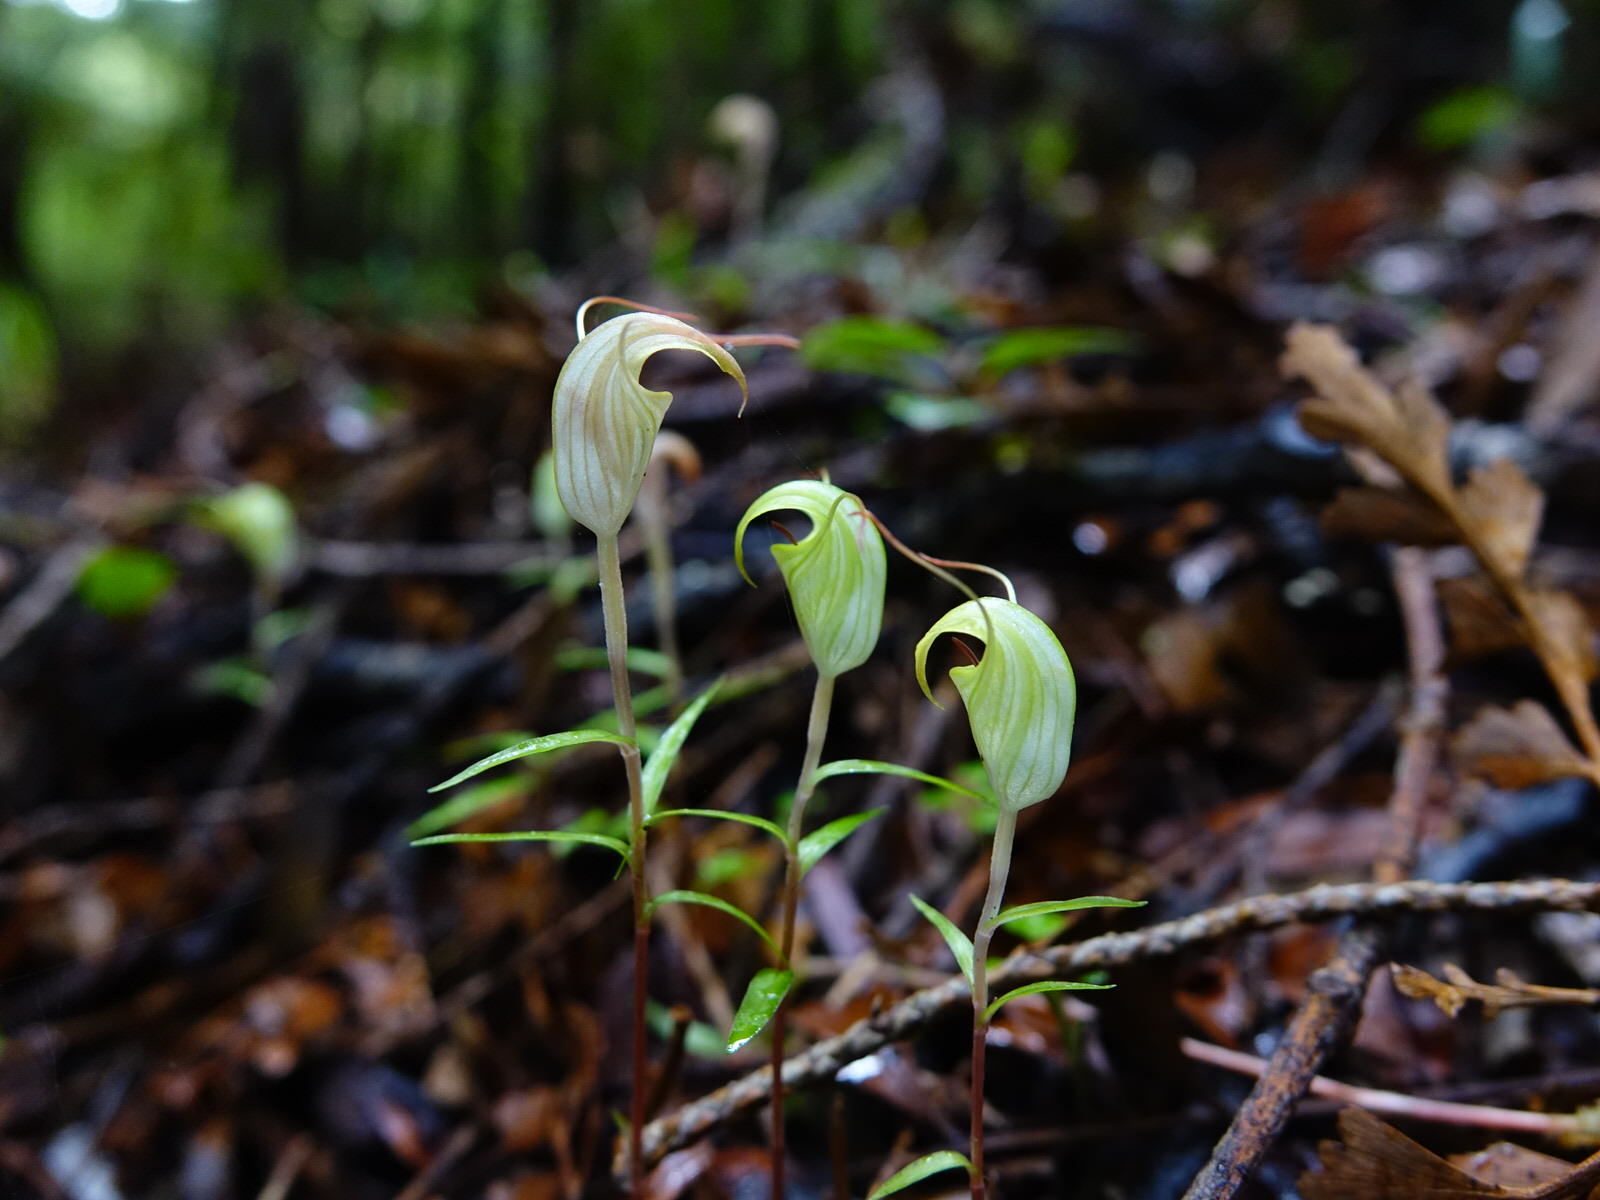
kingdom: Plantae
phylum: Tracheophyta
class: Liliopsida
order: Asparagales
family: Orchidaceae
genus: Pterostylis
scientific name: Pterostylis brumalis
